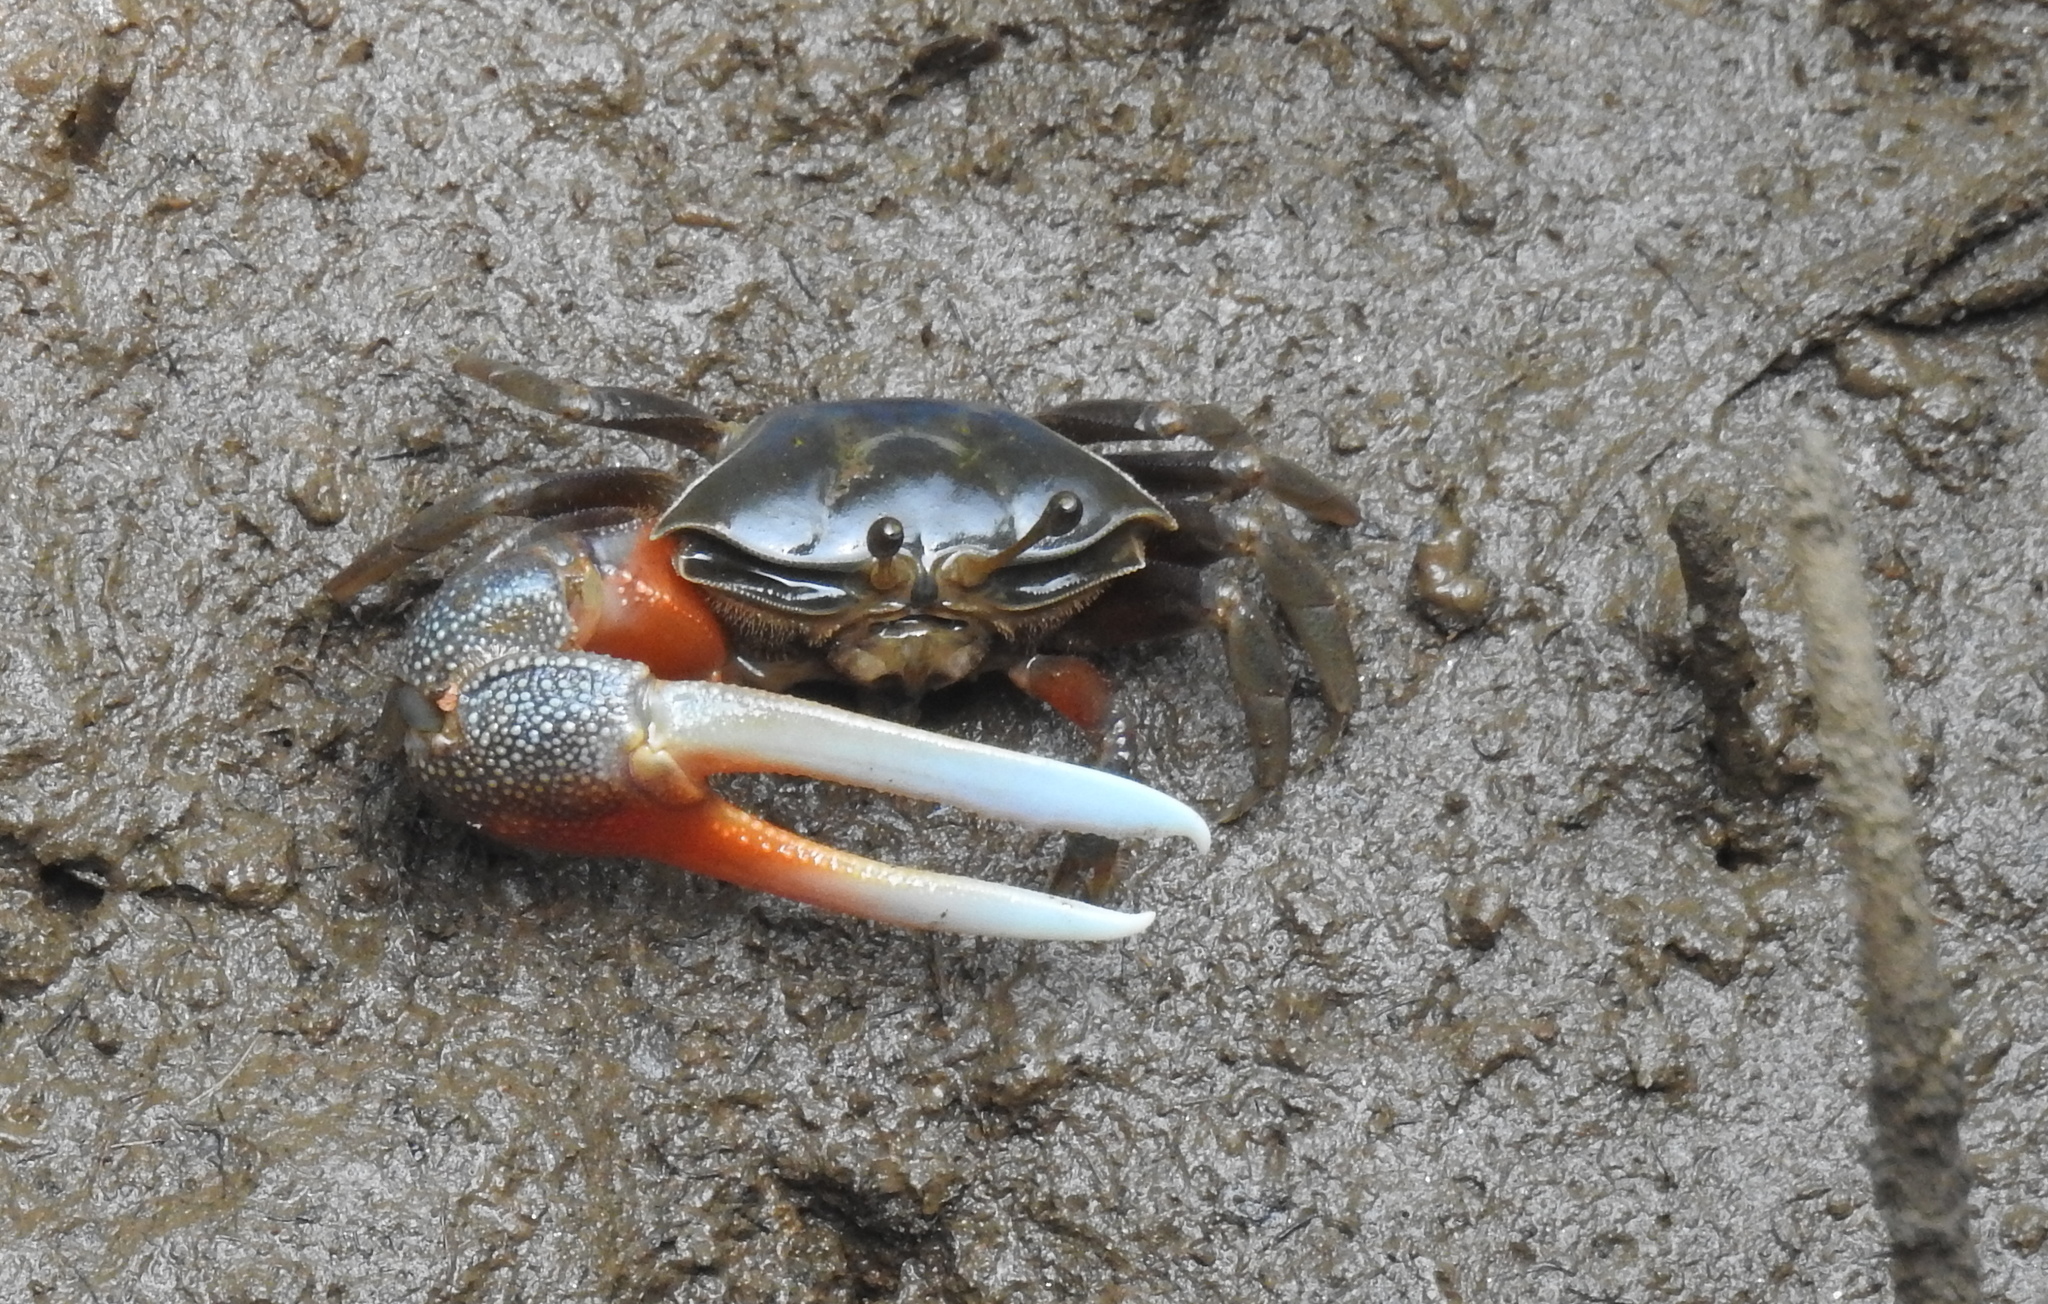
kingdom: Animalia
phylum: Arthropoda
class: Malacostraca
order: Decapoda
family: Ocypodidae
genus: Tubuca
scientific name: Tubuca alcocki
